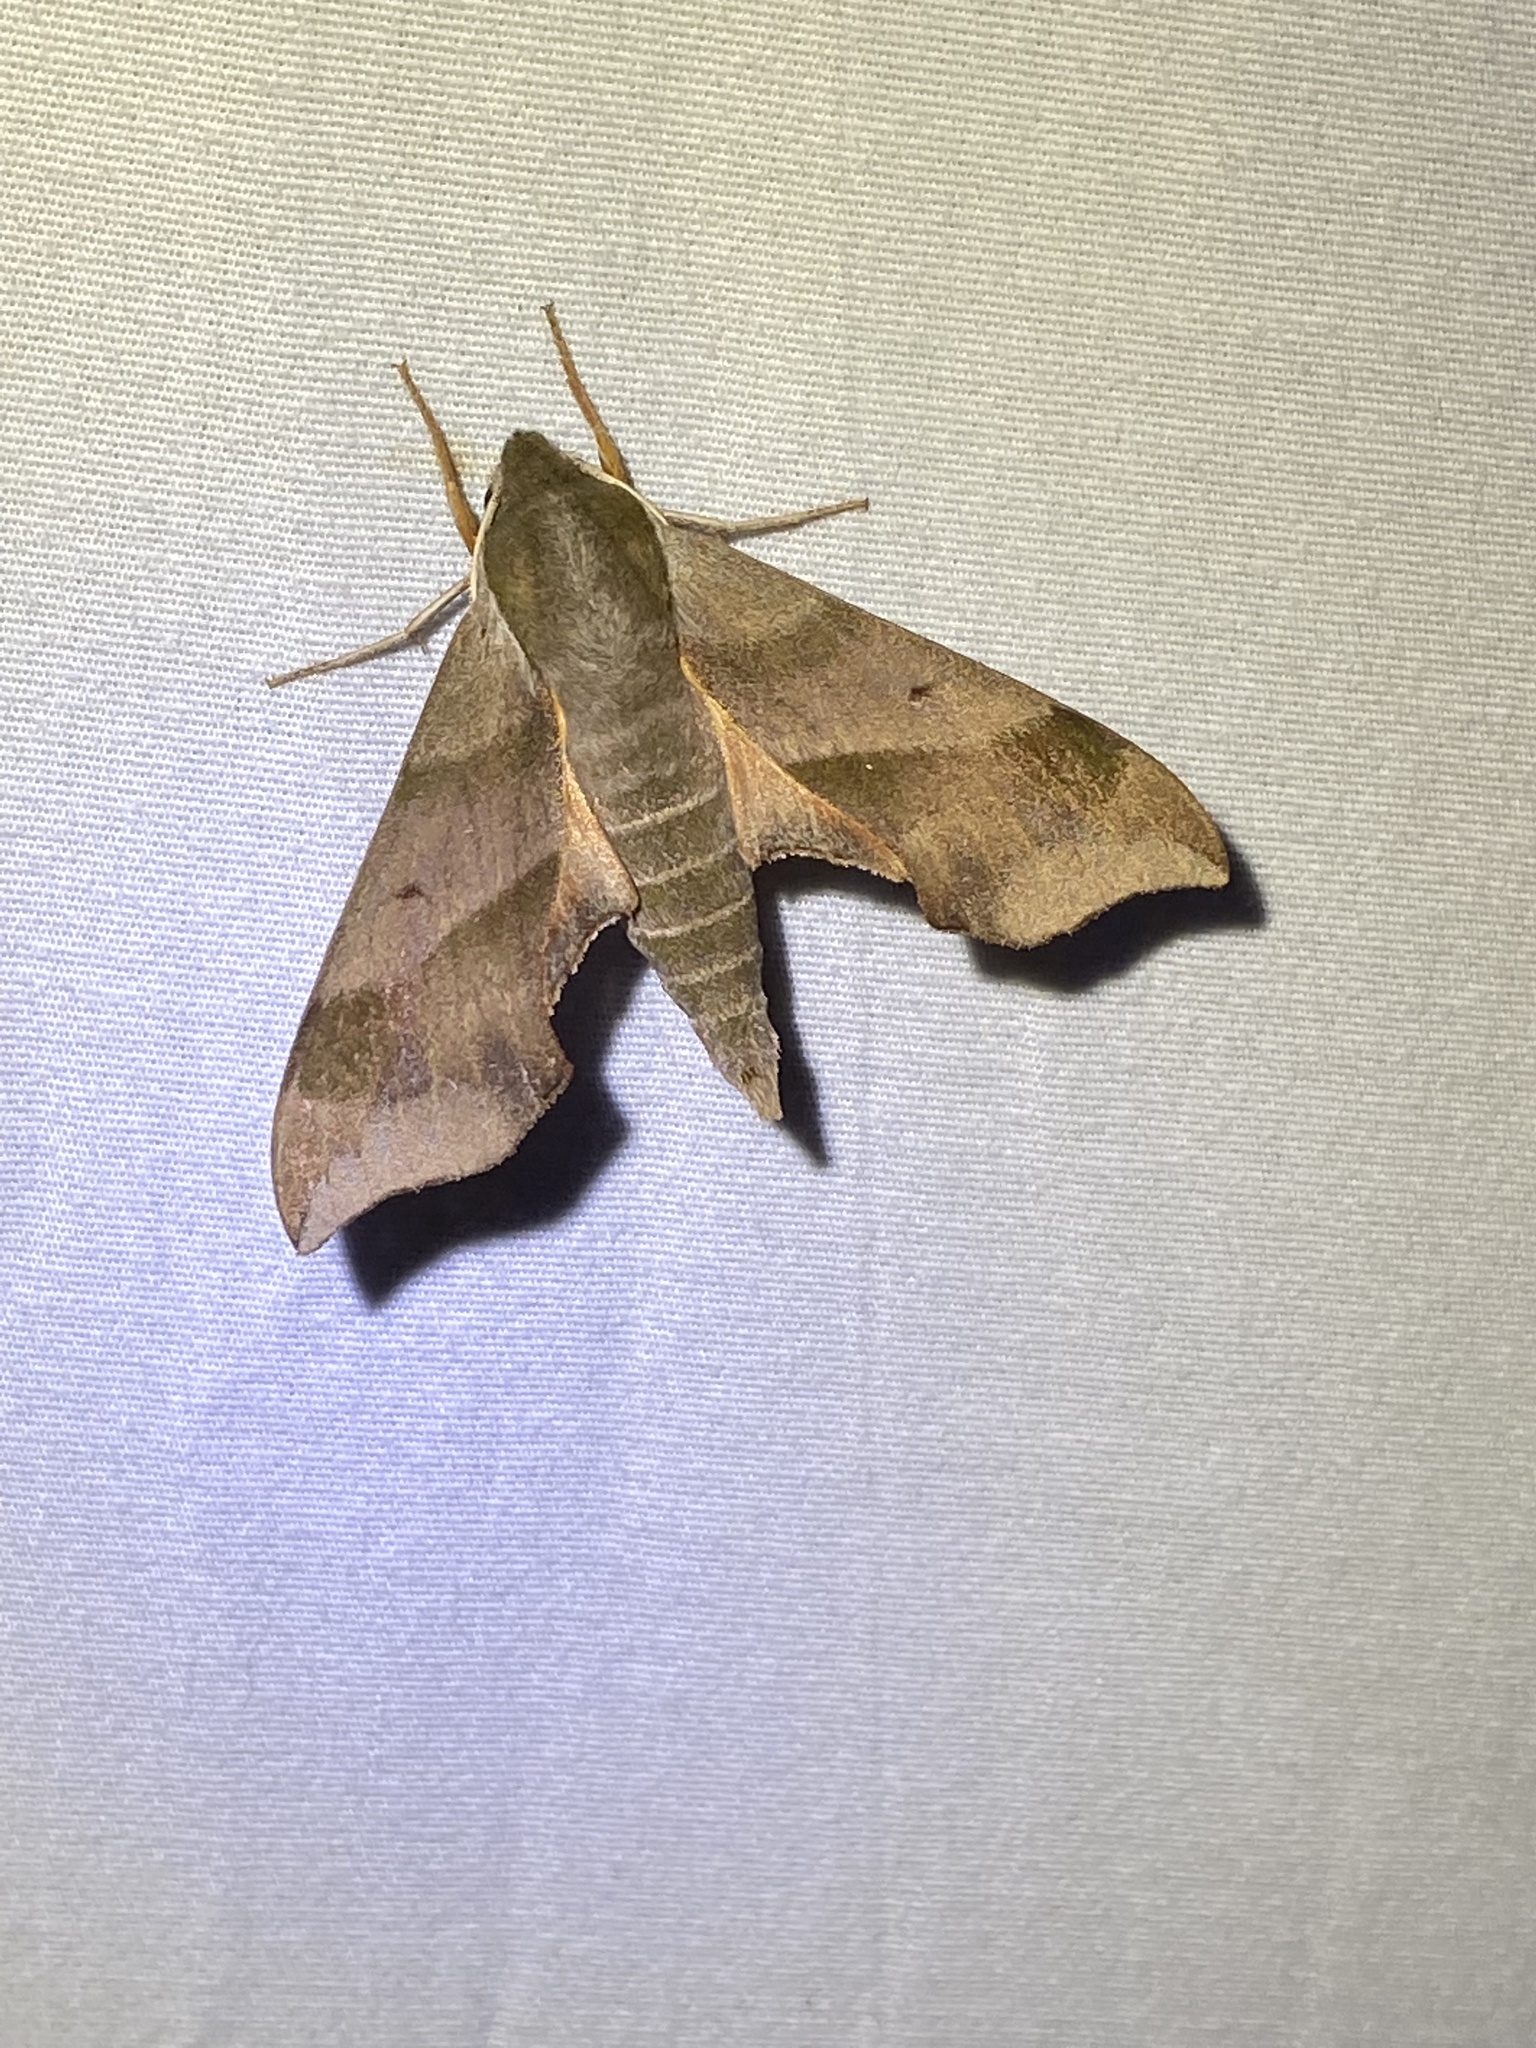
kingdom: Animalia
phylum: Arthropoda
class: Insecta
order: Lepidoptera
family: Sphingidae
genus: Darapsa
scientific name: Darapsa myron
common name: Hog sphinx
